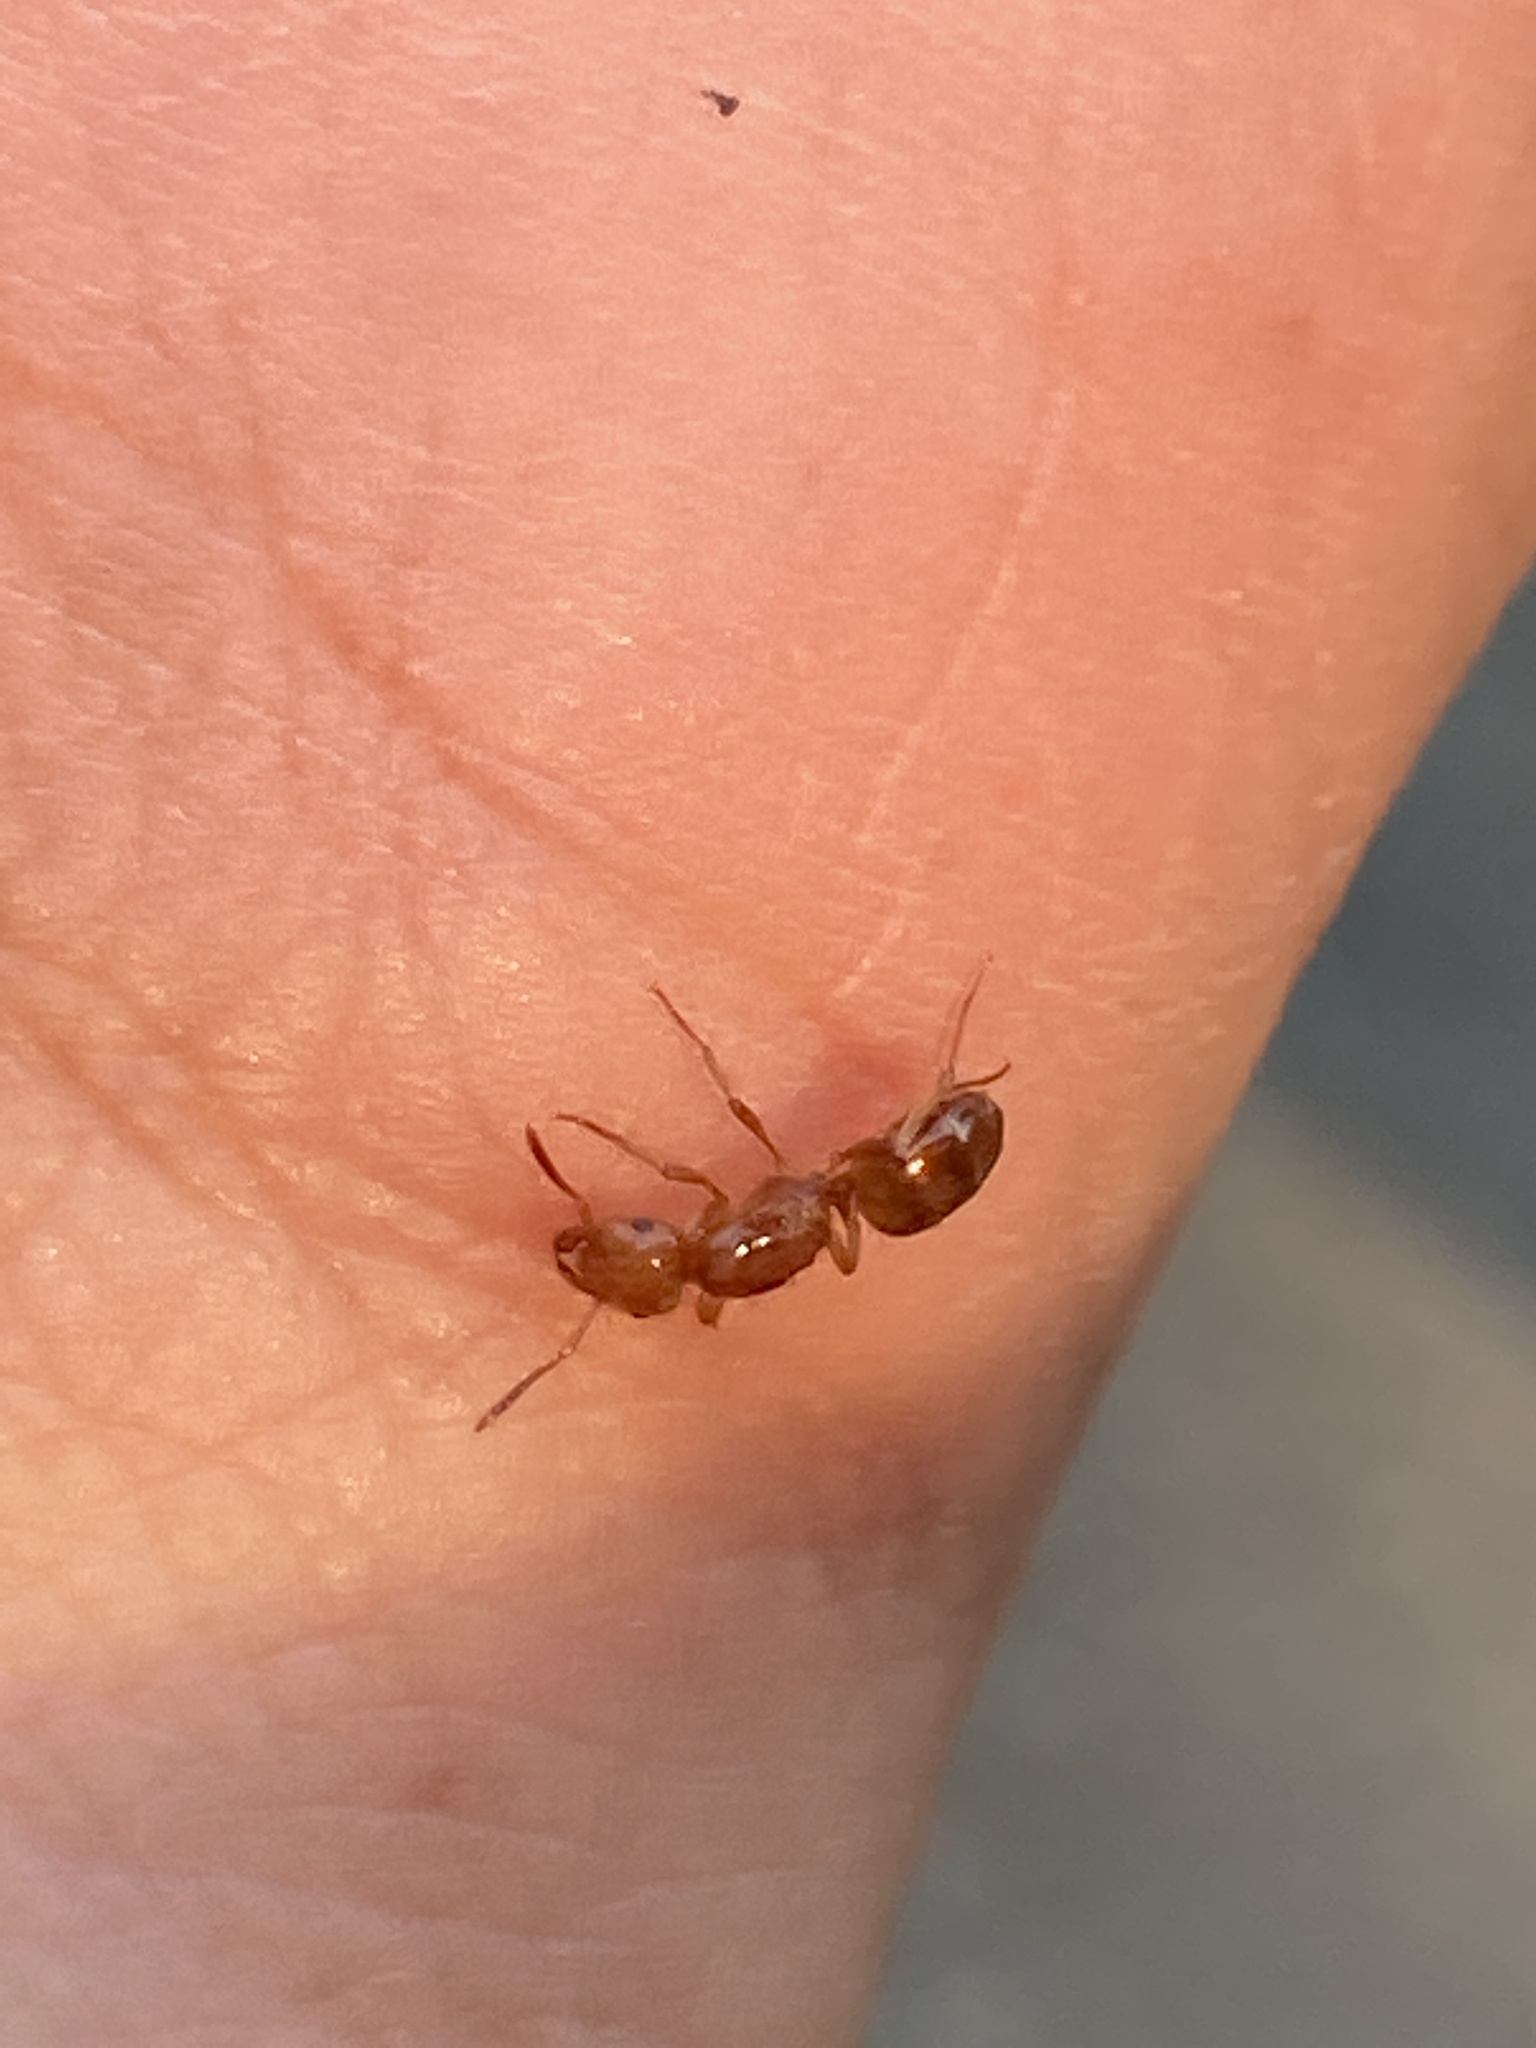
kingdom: Animalia
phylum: Arthropoda
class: Insecta
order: Hymenoptera
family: Formicidae
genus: Acanthomyops
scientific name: Acanthomyops interjectus
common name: Larger yellow ant
